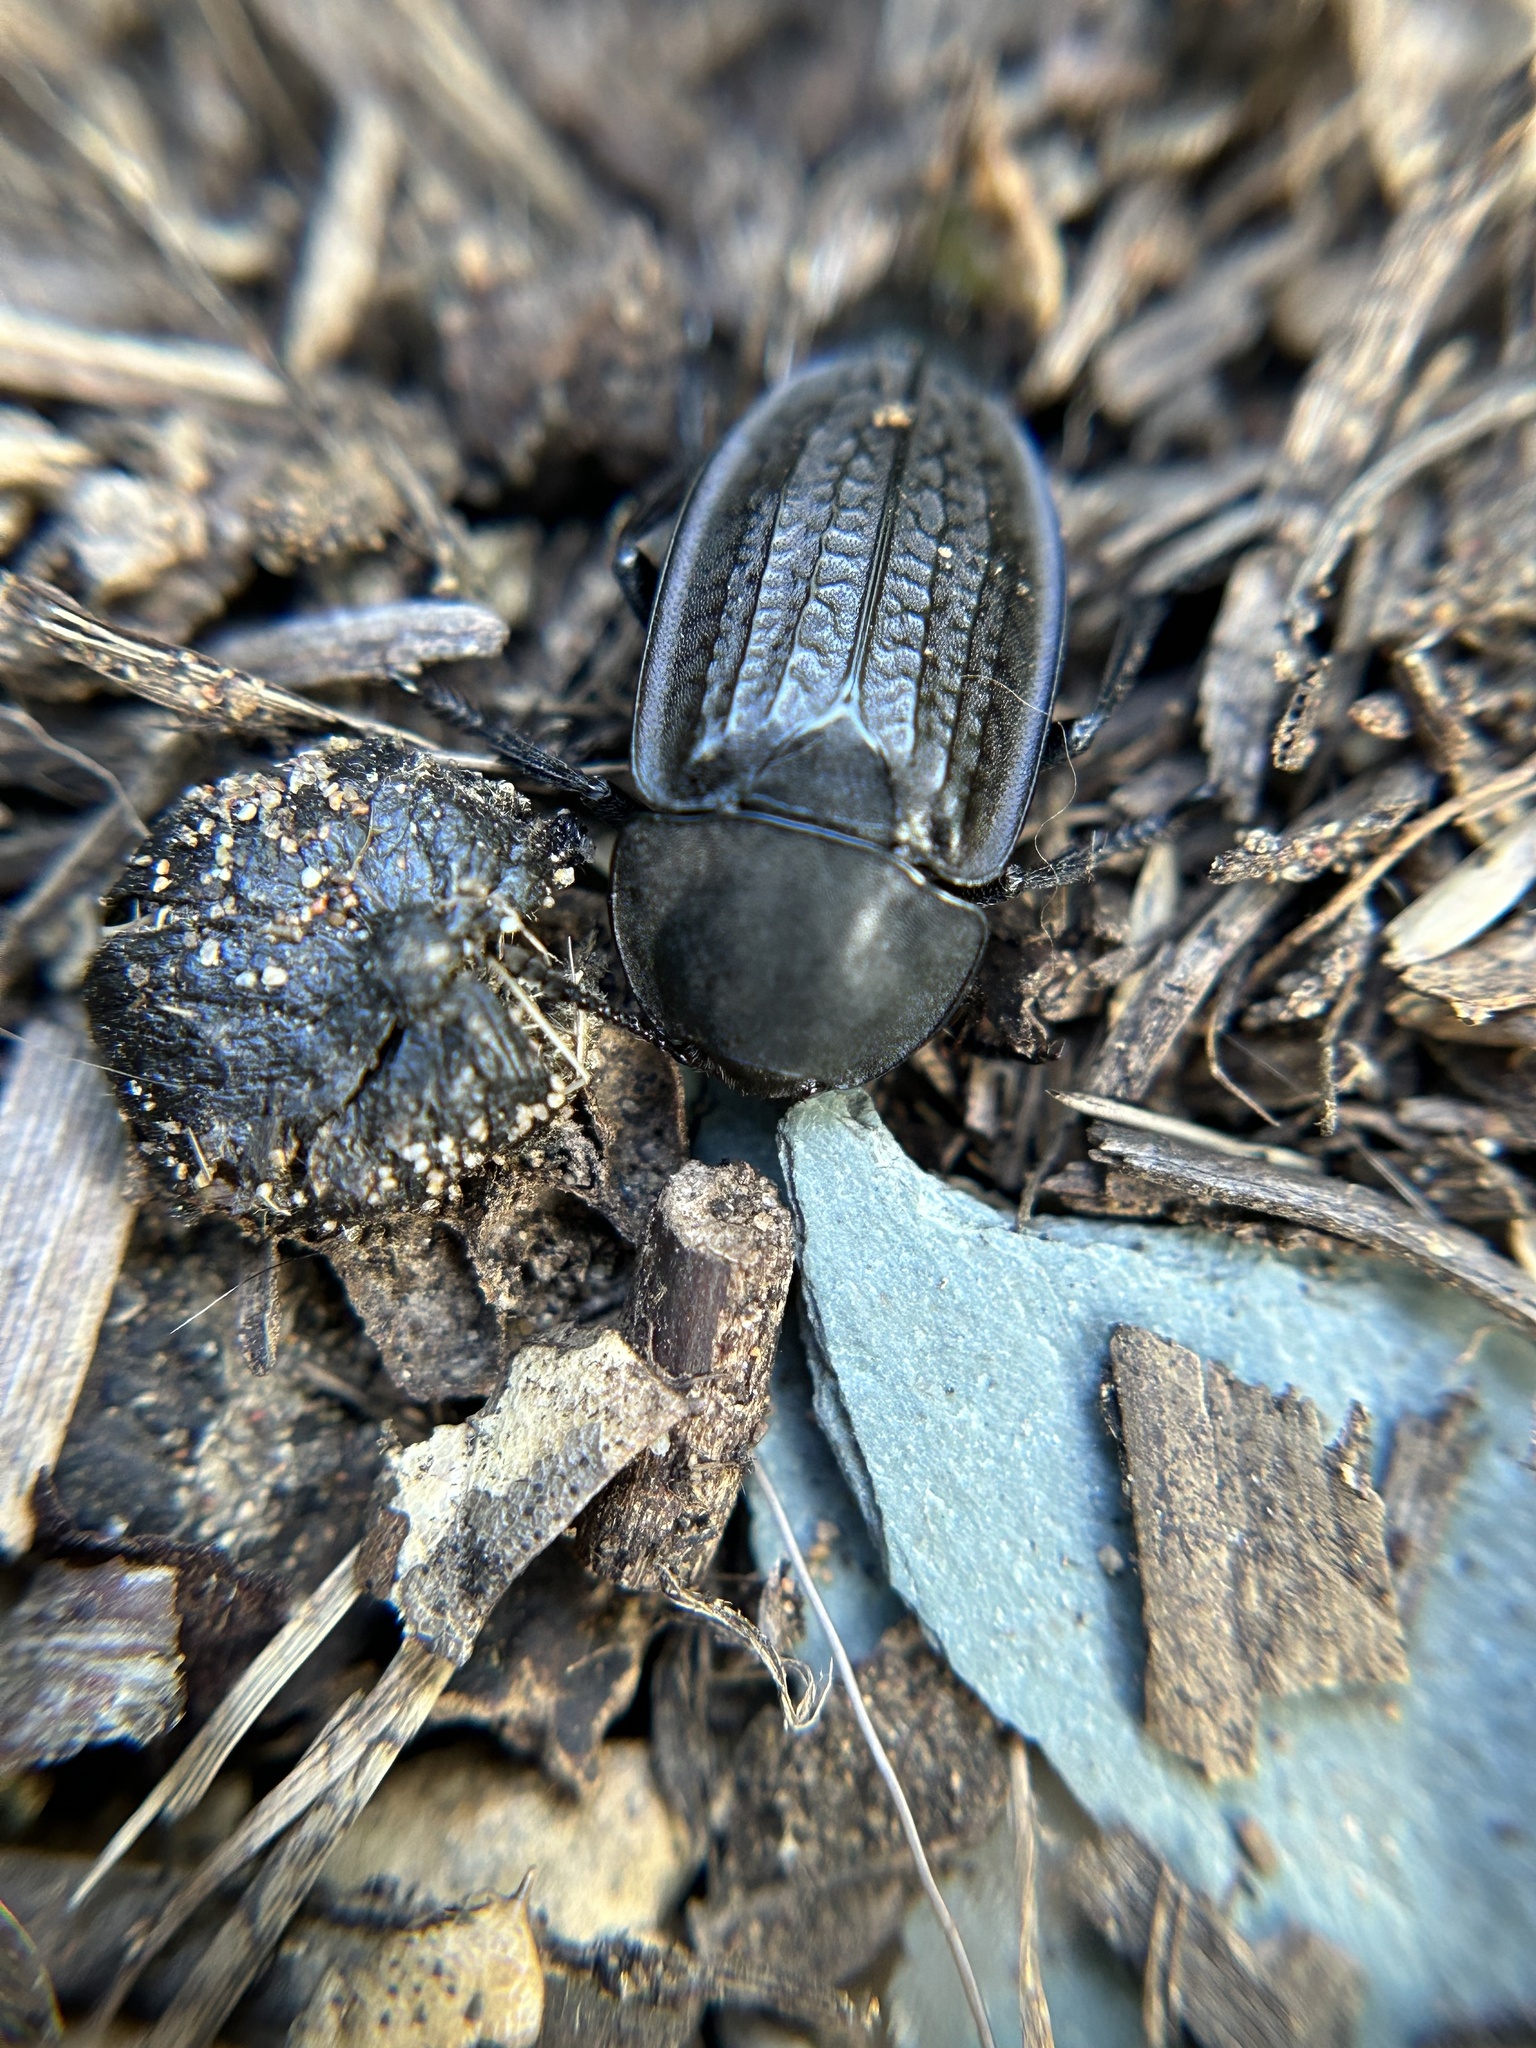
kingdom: Animalia
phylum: Arthropoda
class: Insecta
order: Coleoptera
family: Staphylinidae
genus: Heterosilpha
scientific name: Heterosilpha ramosa
